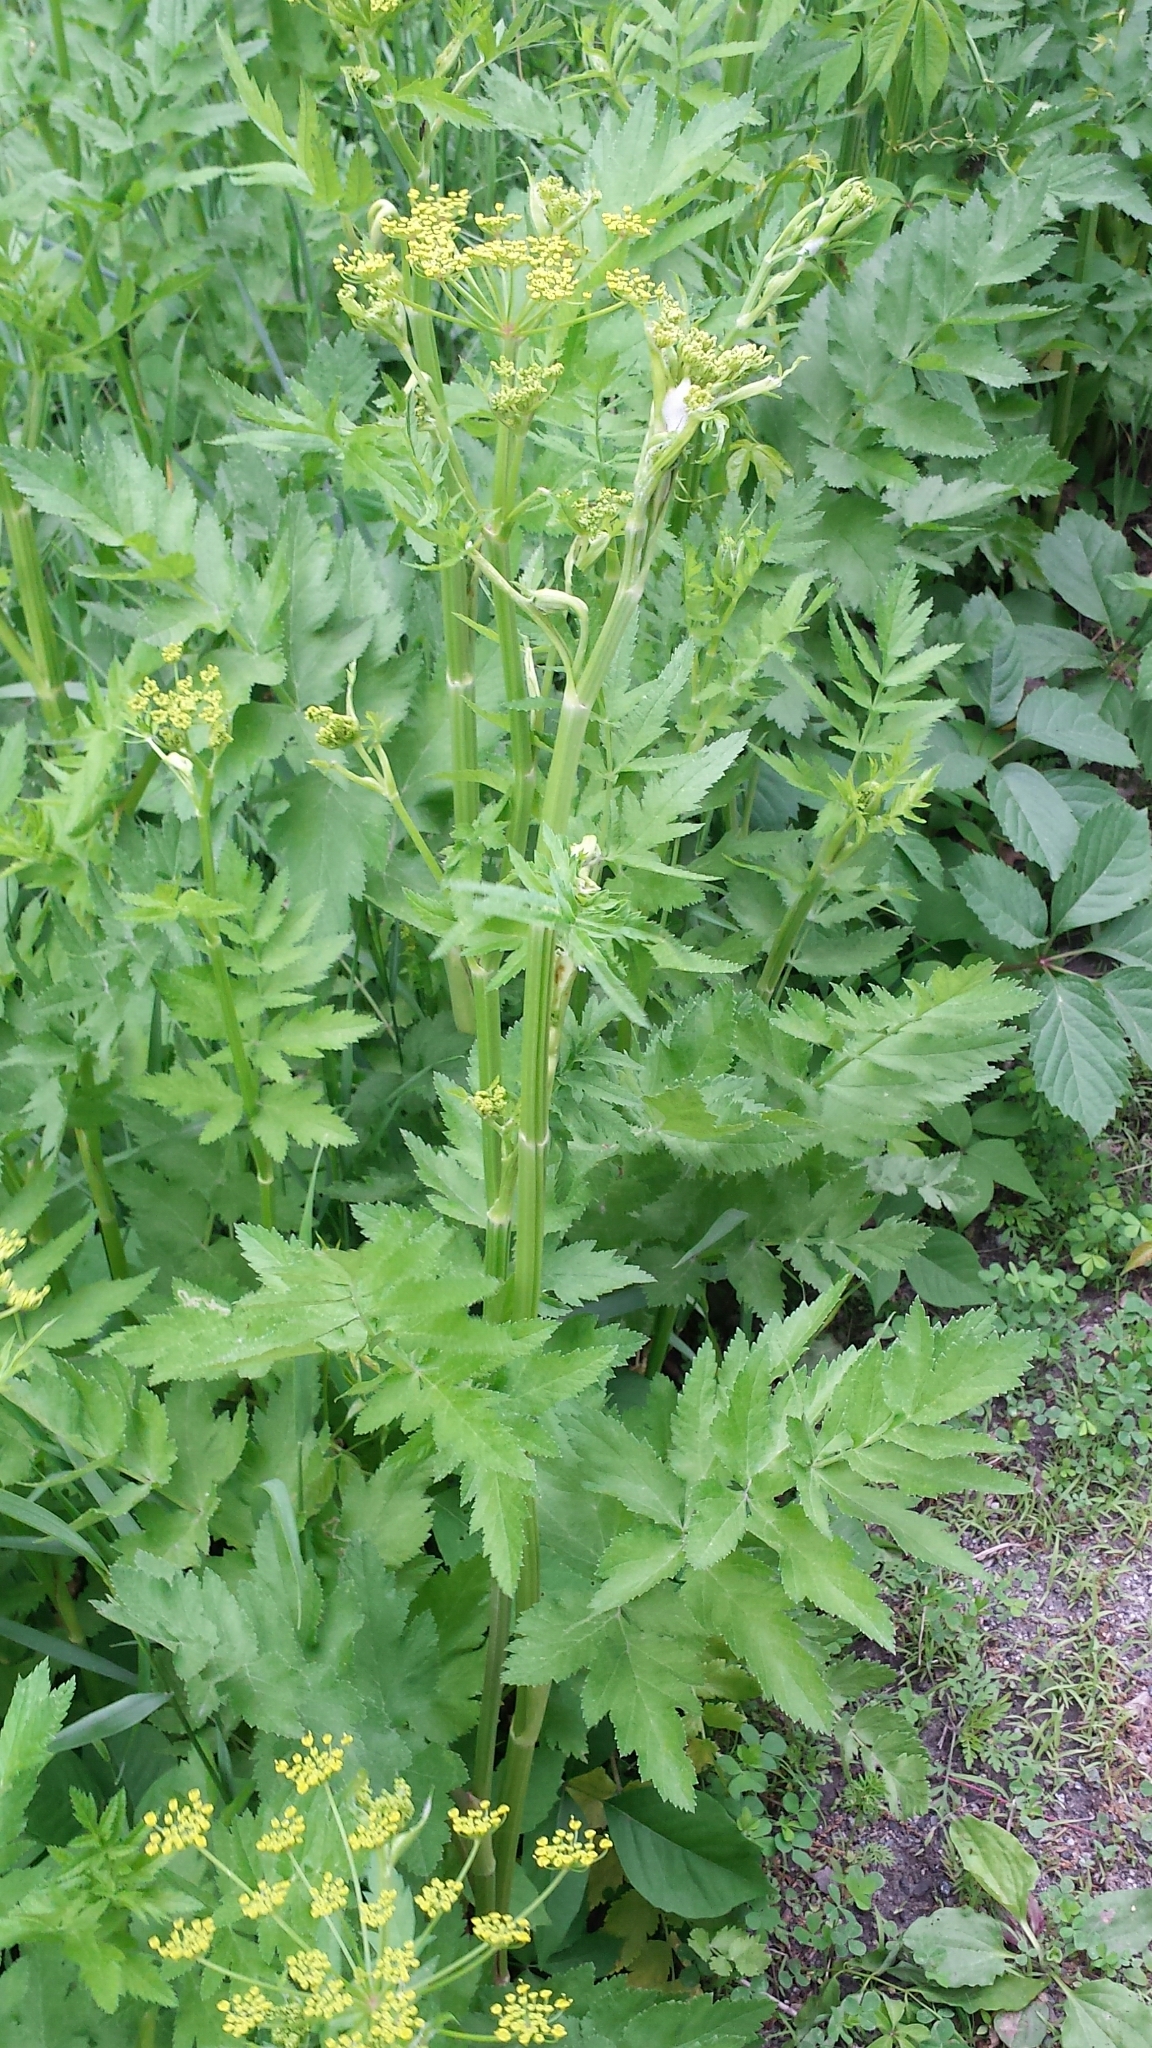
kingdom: Plantae
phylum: Tracheophyta
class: Magnoliopsida
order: Apiales
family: Apiaceae
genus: Pastinaca
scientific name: Pastinaca sativa
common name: Wild parsnip
